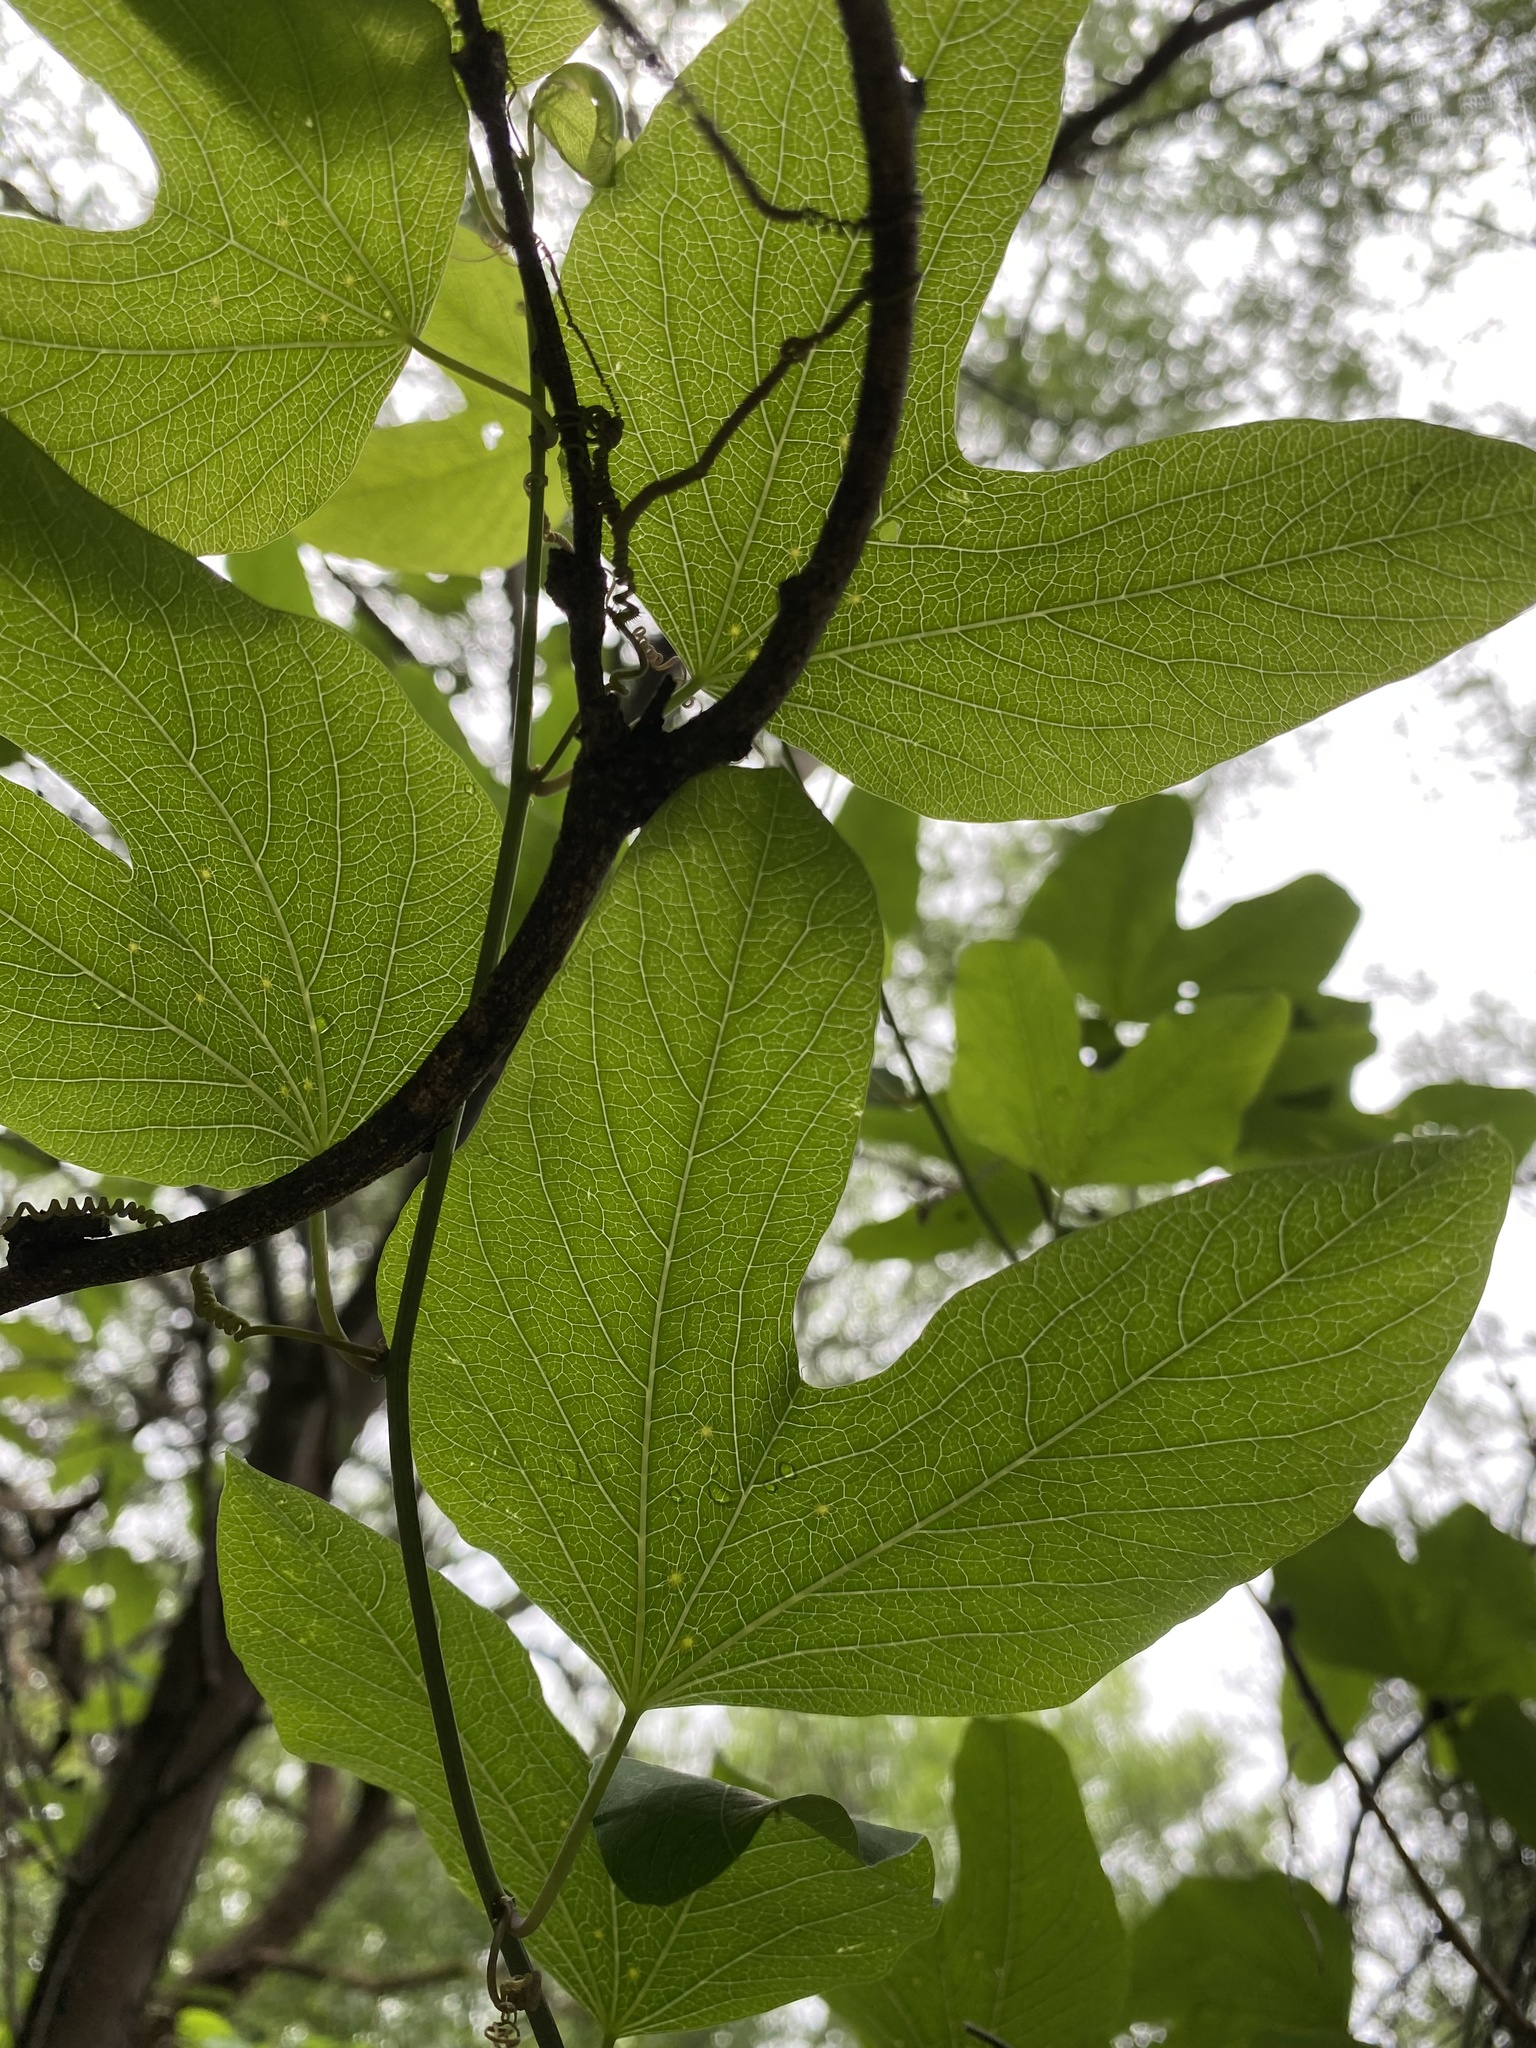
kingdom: Plantae
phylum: Tracheophyta
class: Magnoliopsida
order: Malpighiales
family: Passifloraceae
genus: Passiflora
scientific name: Passiflora mexicana
